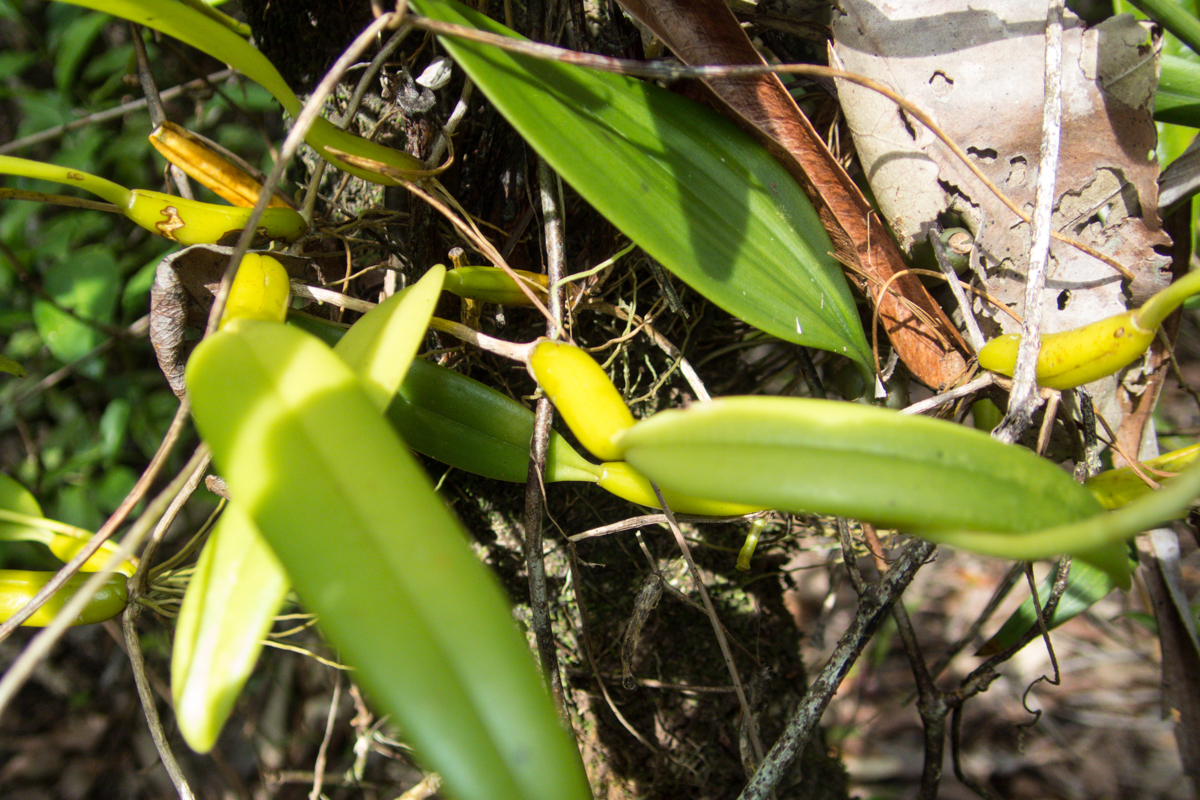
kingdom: Plantae
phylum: Tracheophyta
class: Liliopsida
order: Asparagales
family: Orchidaceae
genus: Bulbophyllum
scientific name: Bulbophyllum odoratissimum
